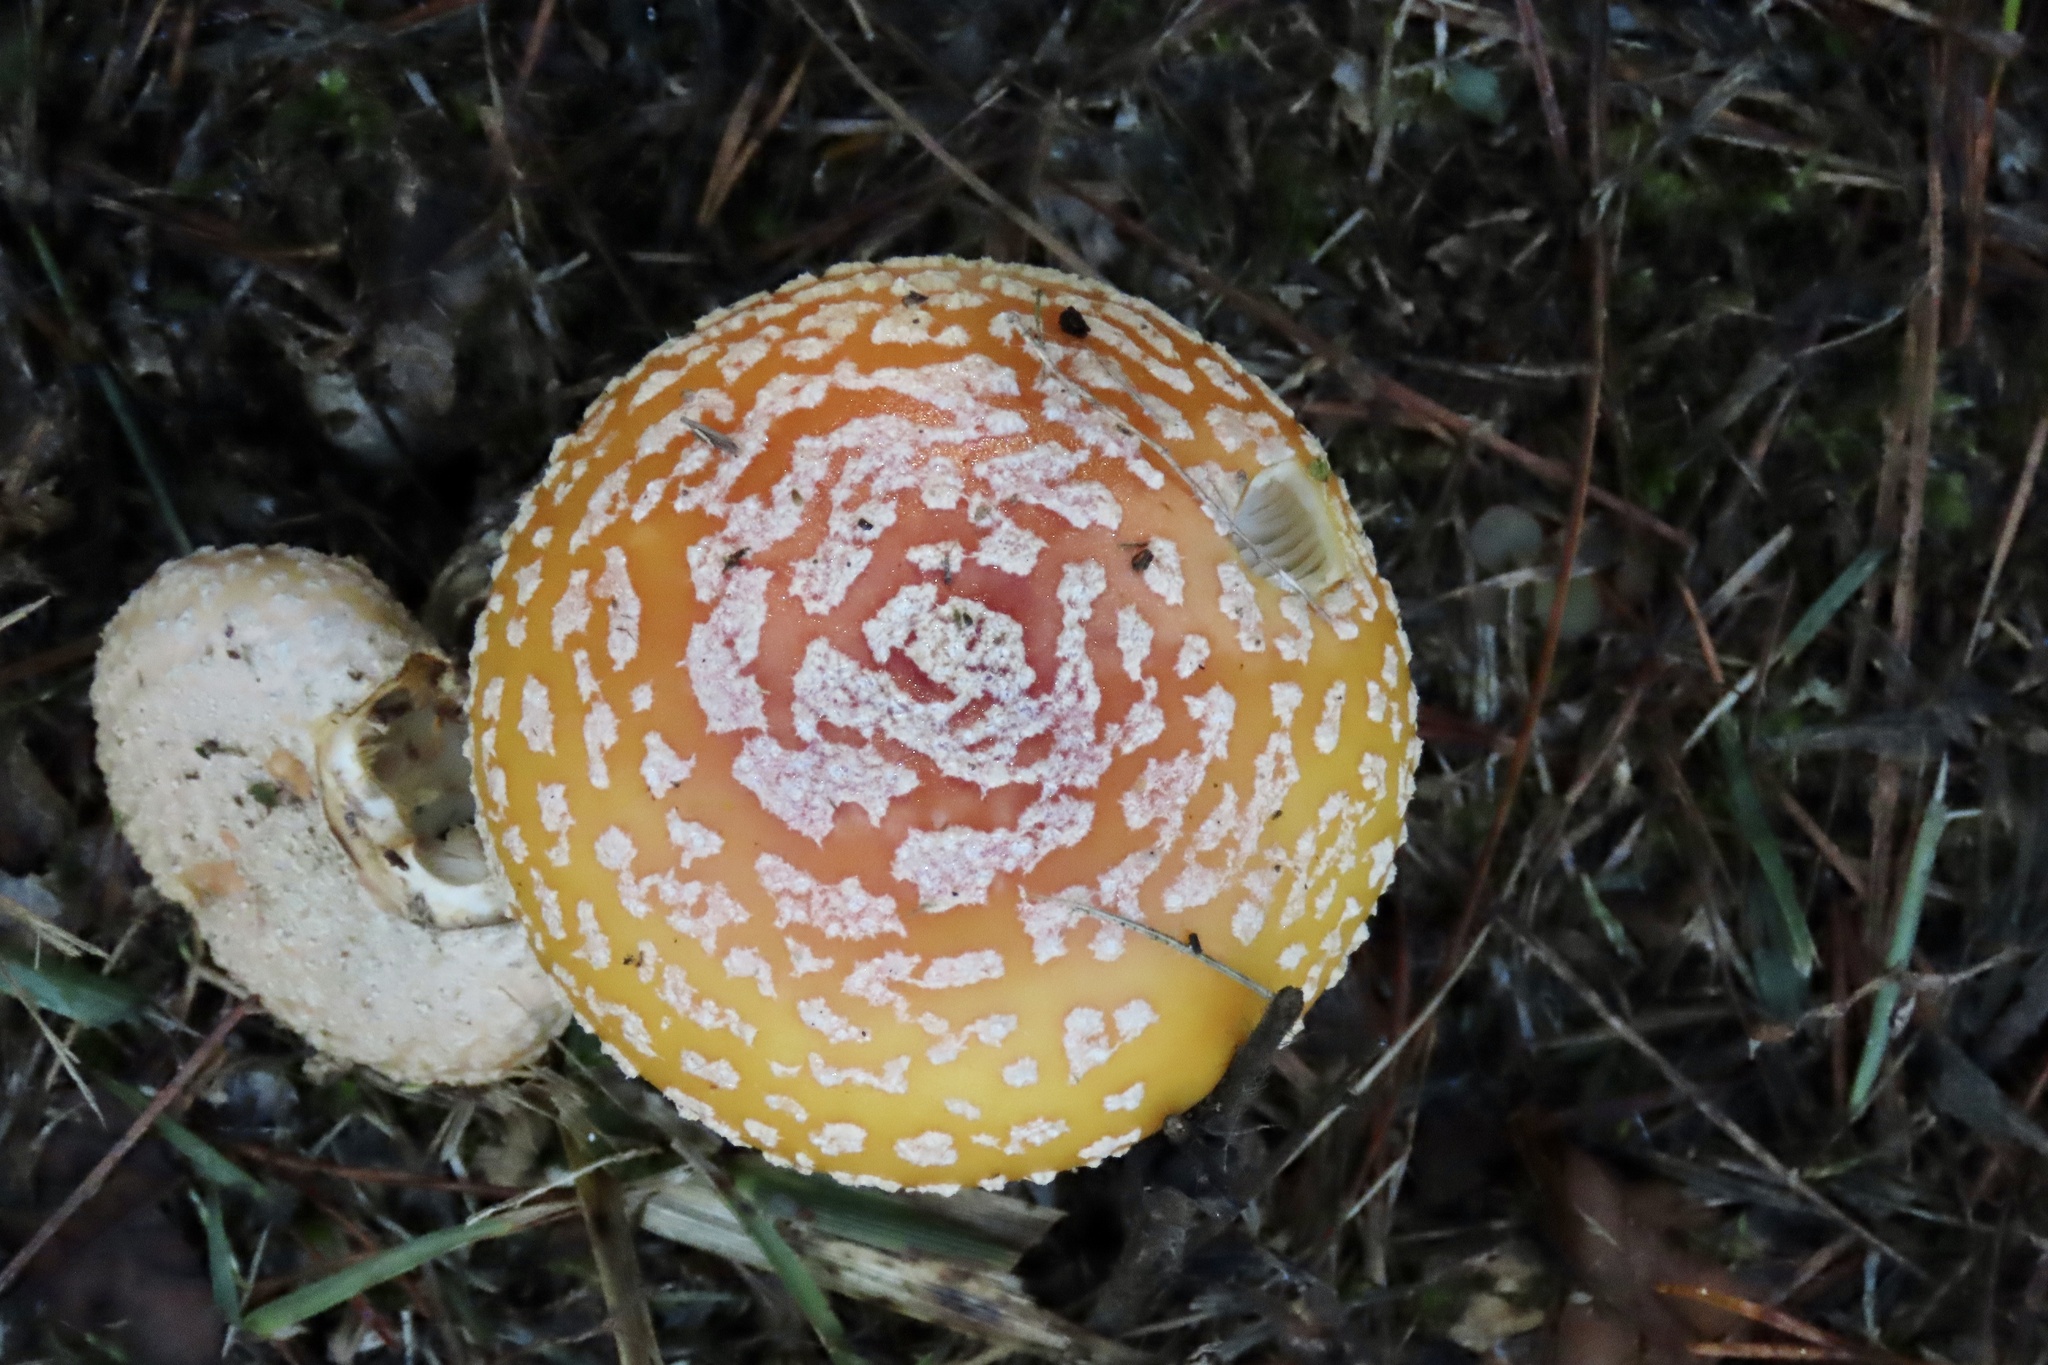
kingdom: Fungi
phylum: Basidiomycota
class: Agaricomycetes
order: Agaricales
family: Amanitaceae
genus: Amanita
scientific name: Amanita persicina
